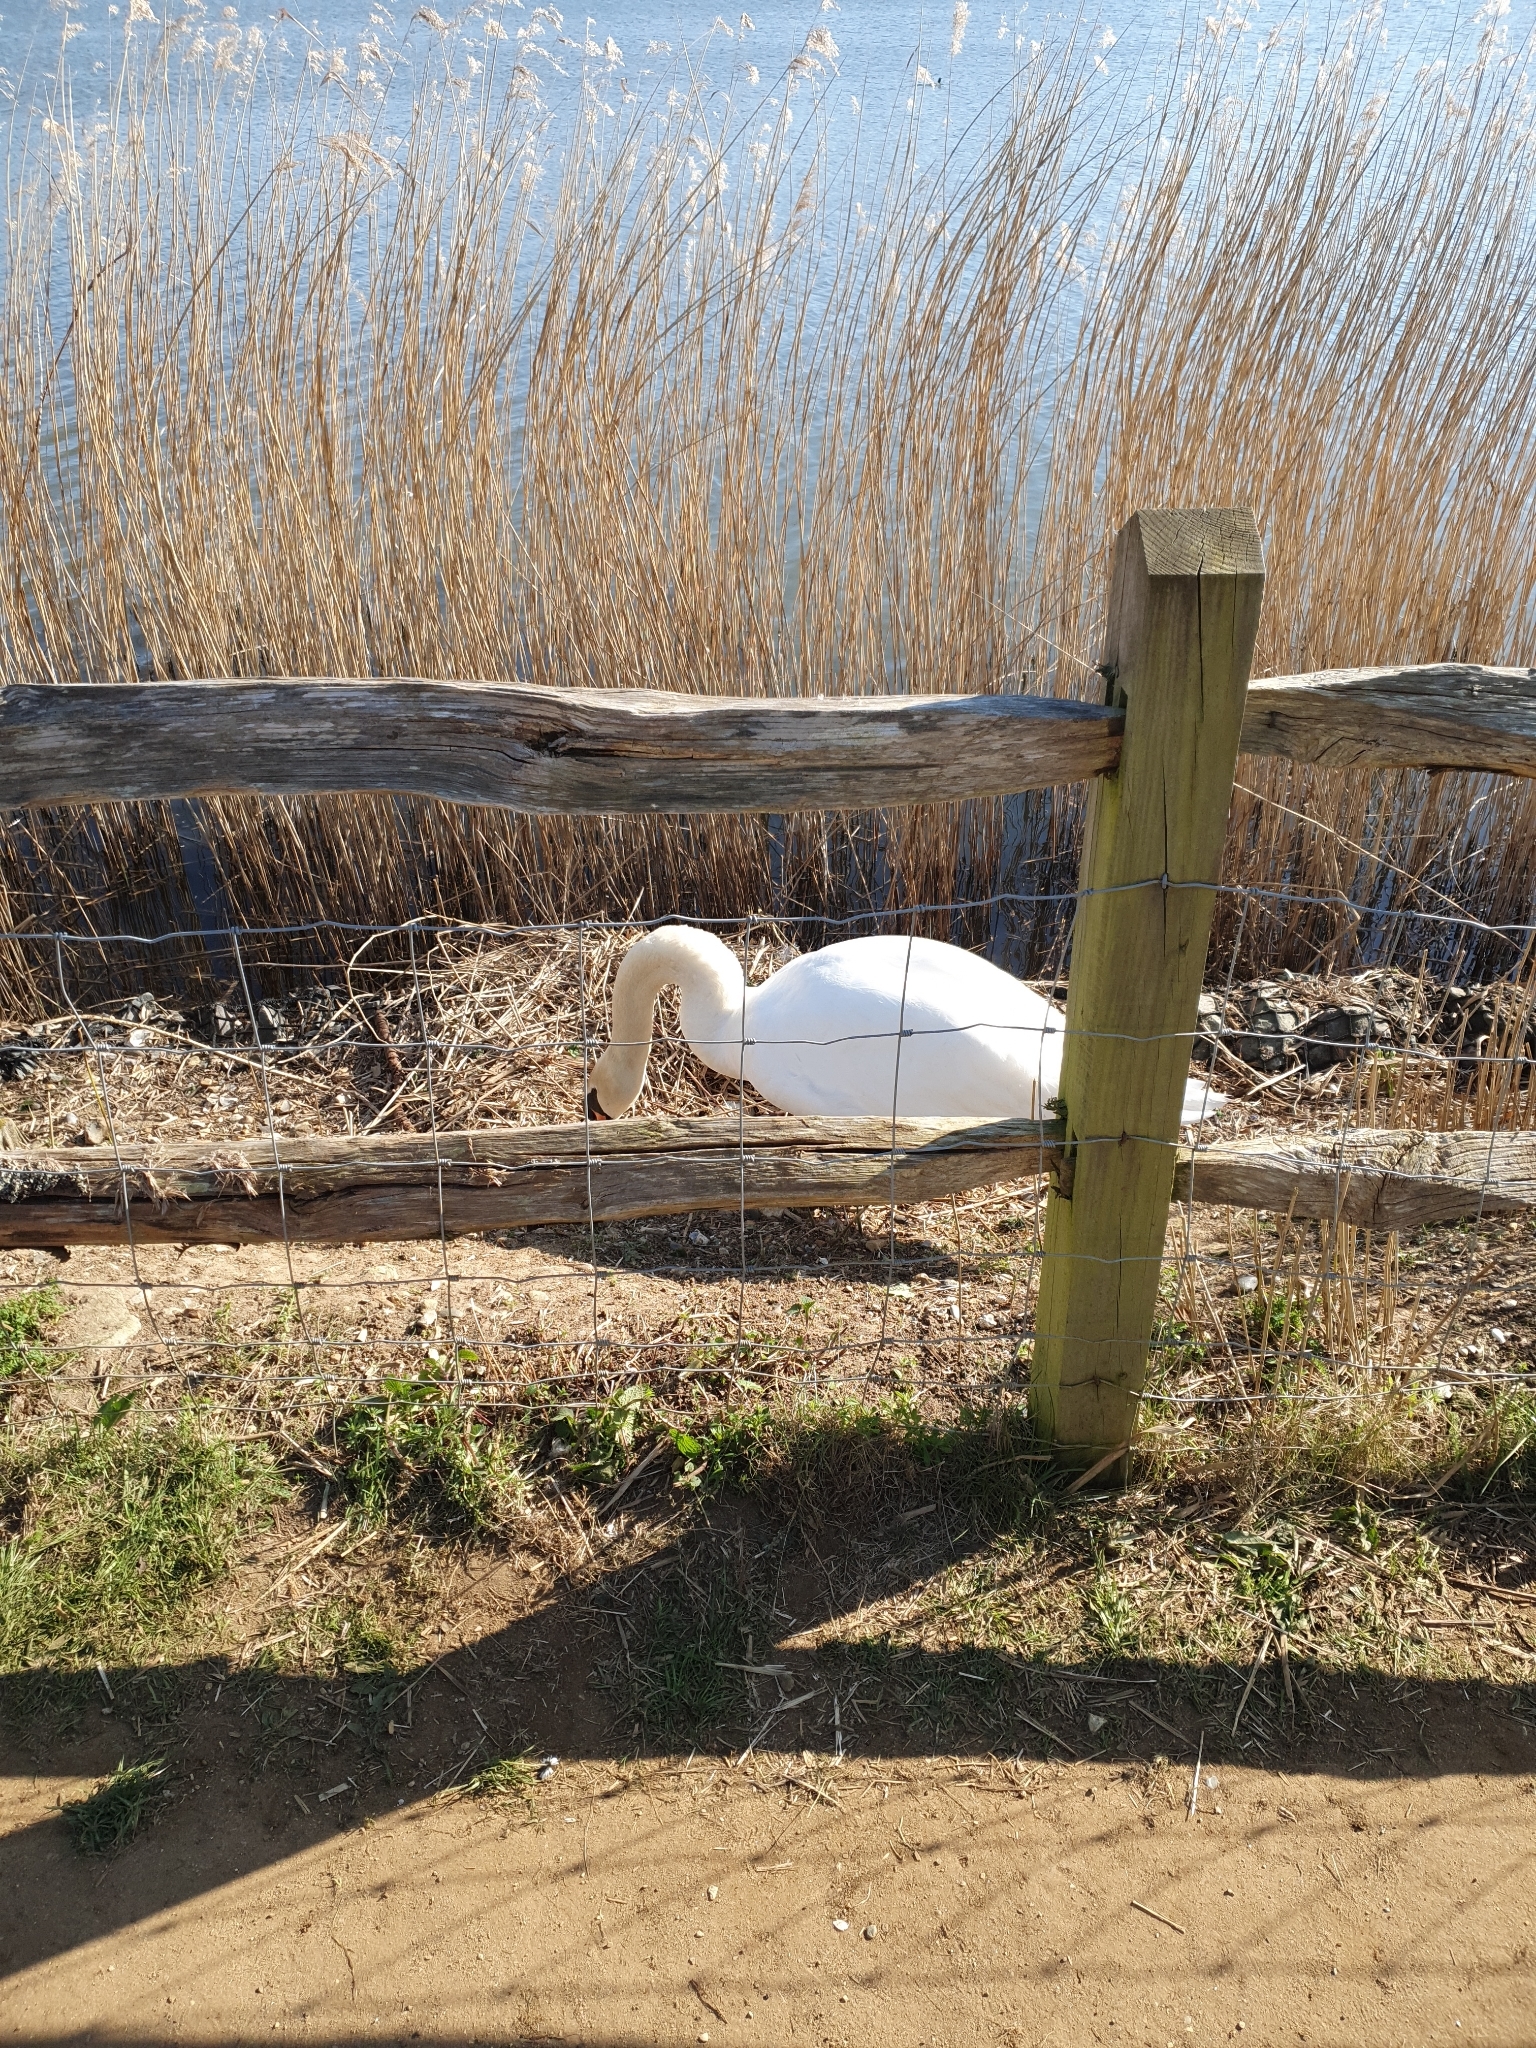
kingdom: Animalia
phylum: Chordata
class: Aves
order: Anseriformes
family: Anatidae
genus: Cygnus
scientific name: Cygnus olor
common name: Mute swan
